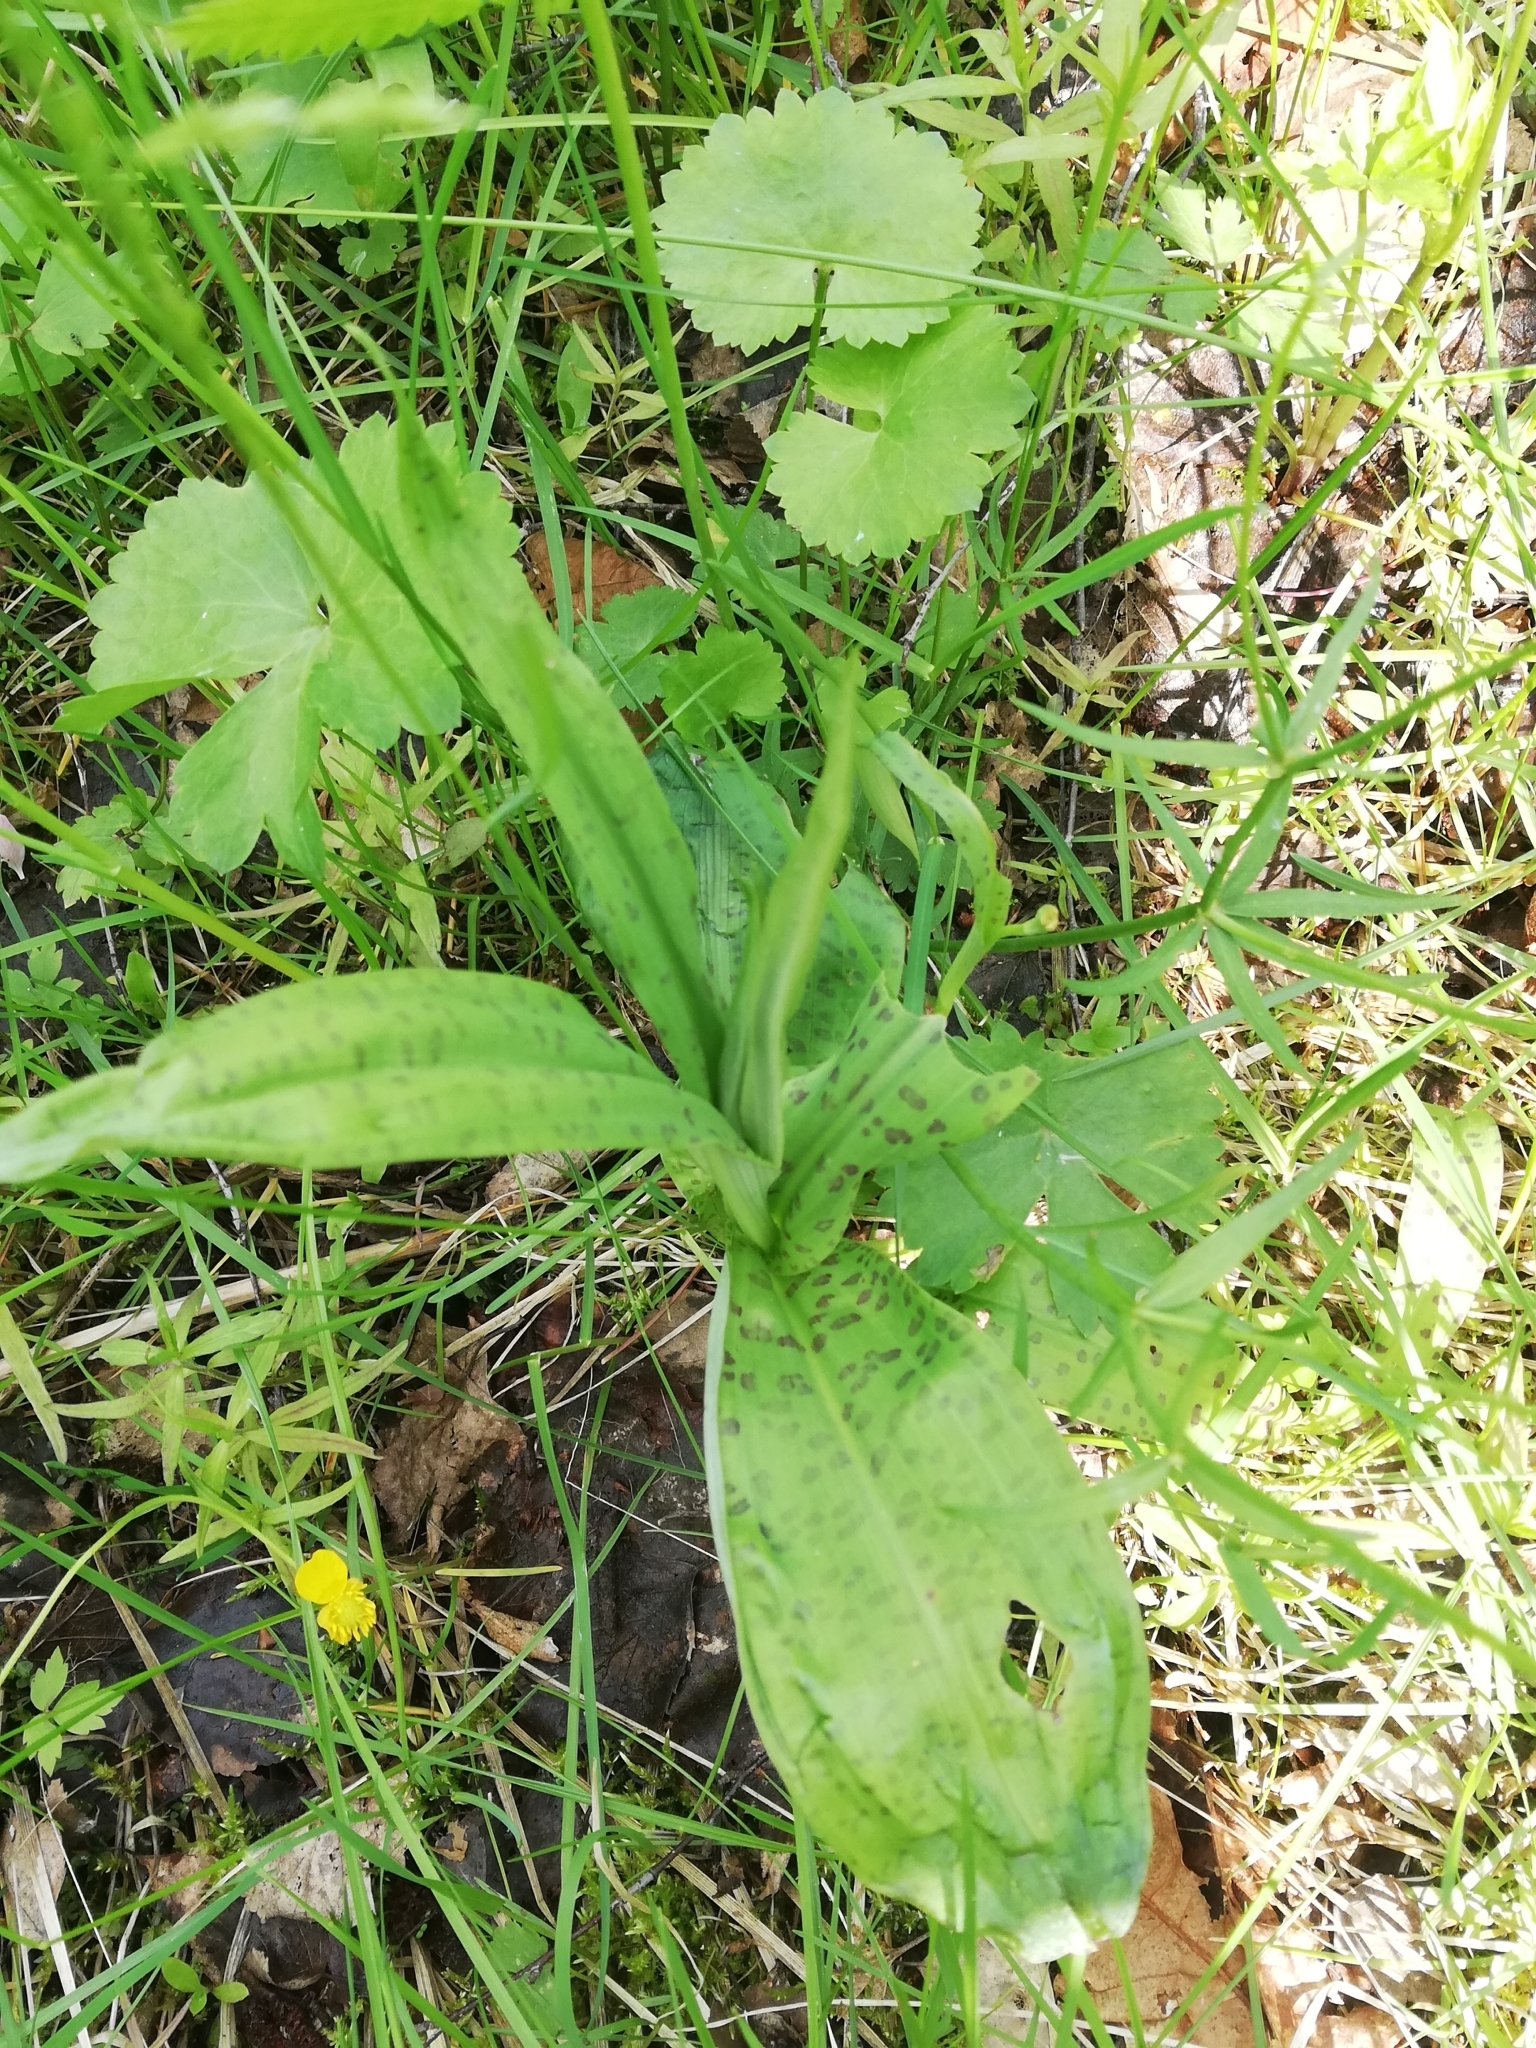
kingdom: Plantae
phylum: Tracheophyta
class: Liliopsida
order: Asparagales
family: Orchidaceae
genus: Dactylorhiza
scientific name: Dactylorhiza maculata
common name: Heath spotted-orchid
